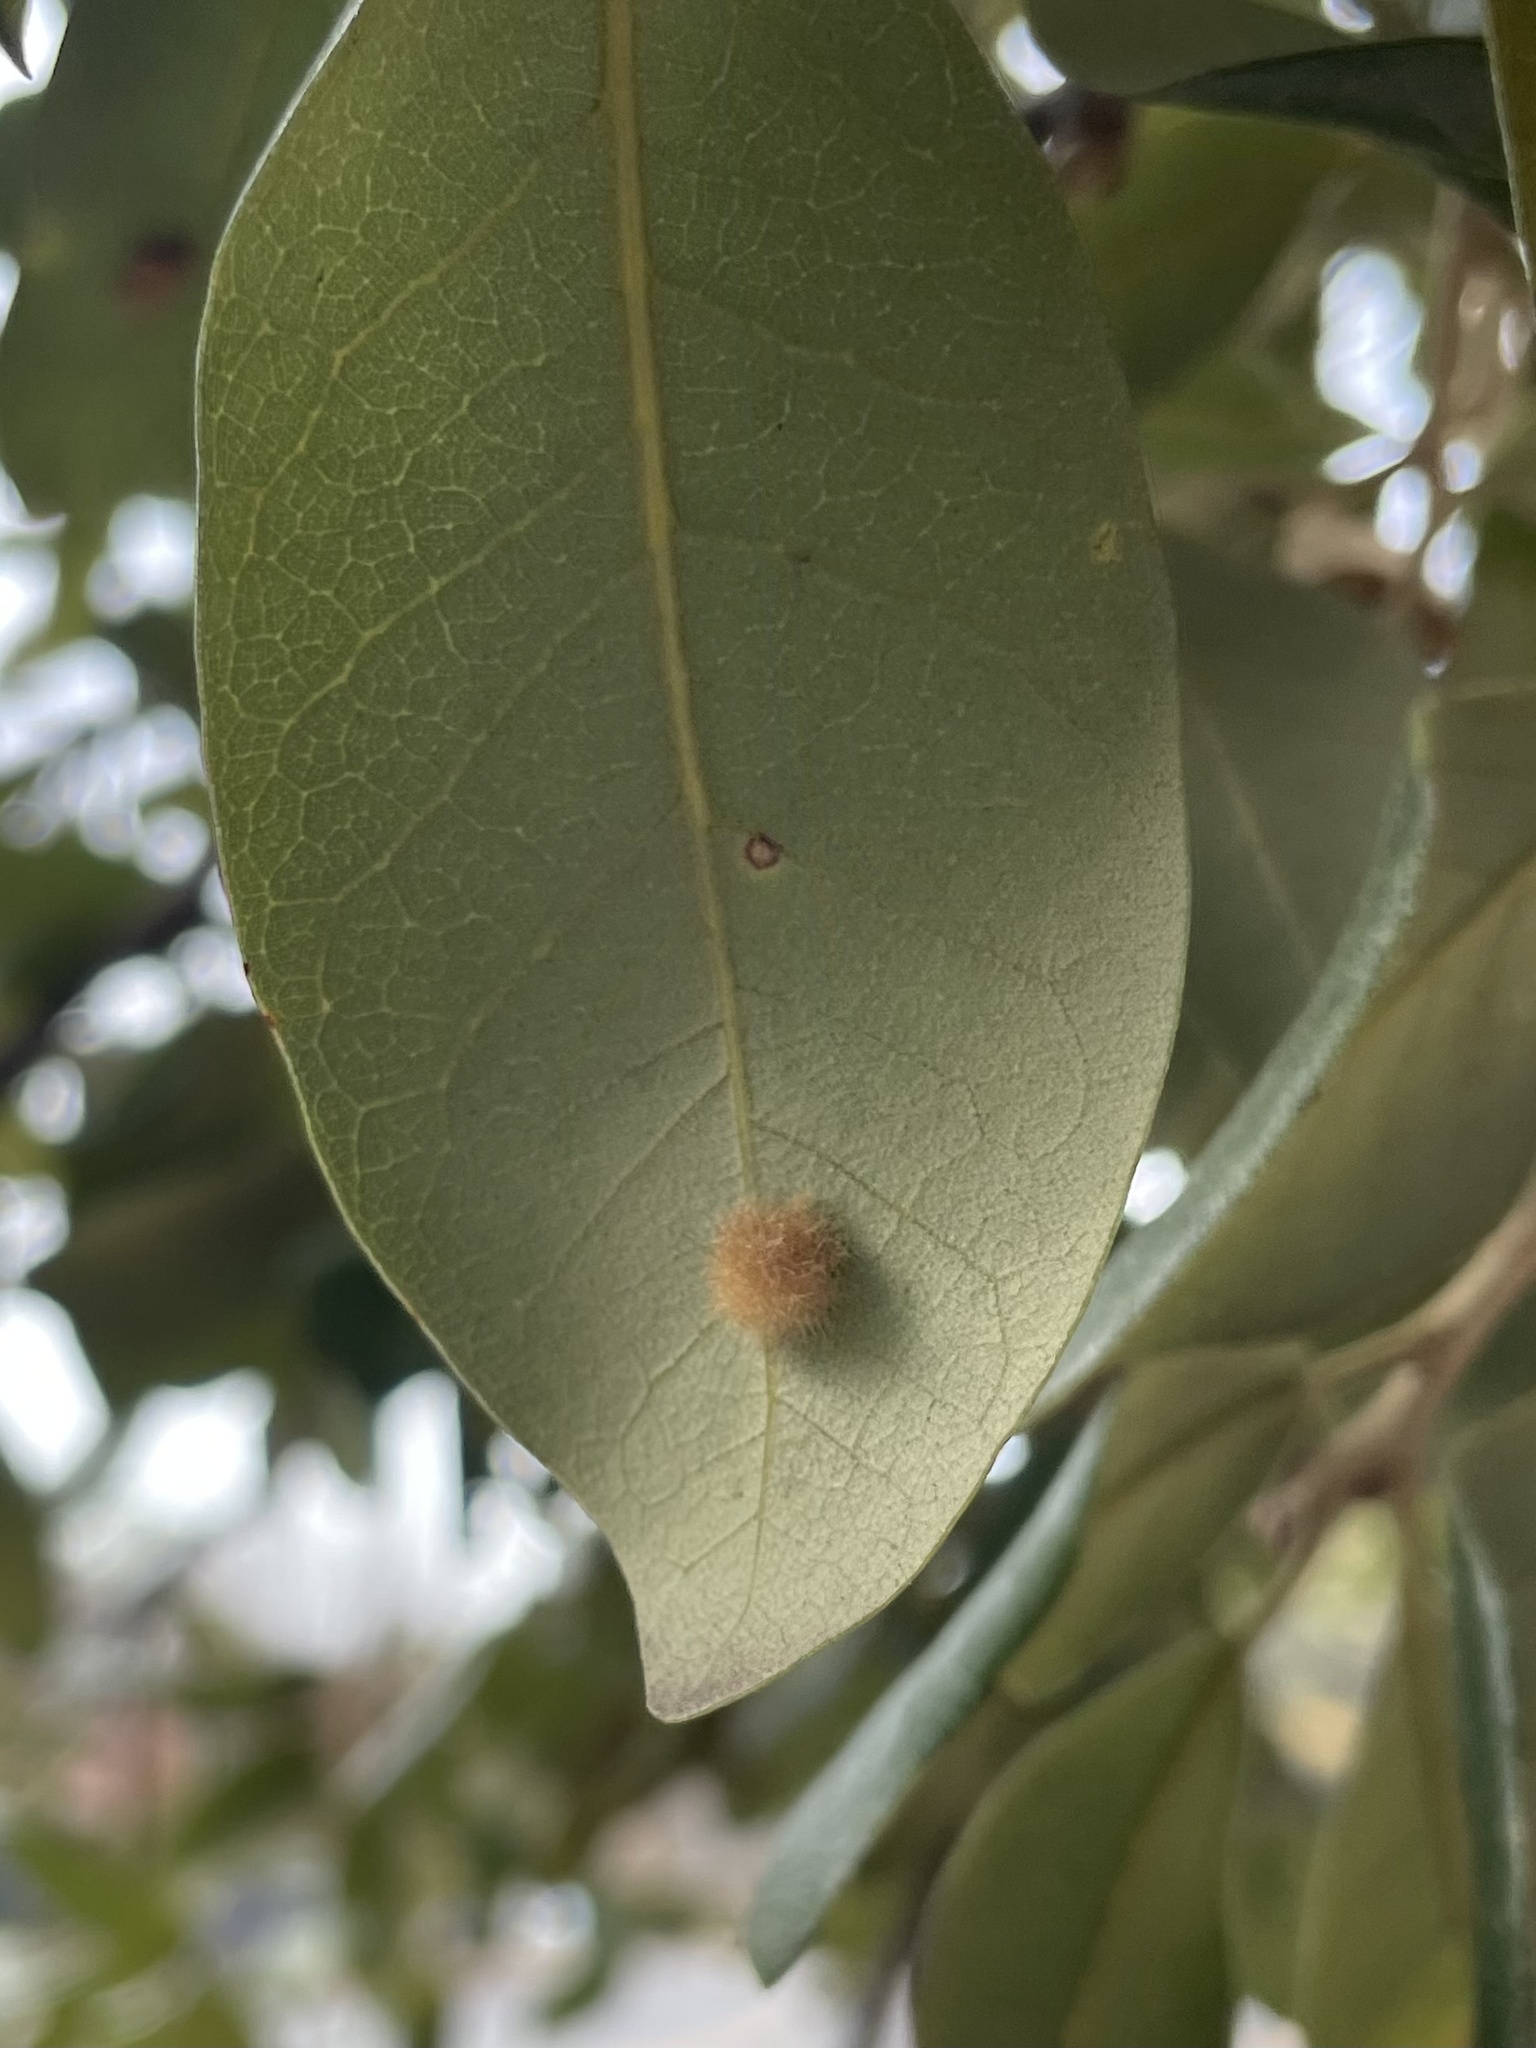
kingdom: Animalia
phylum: Arthropoda
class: Insecta
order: Hymenoptera
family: Cynipidae
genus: Andricus
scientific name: Andricus Druon quercuslanigerum
